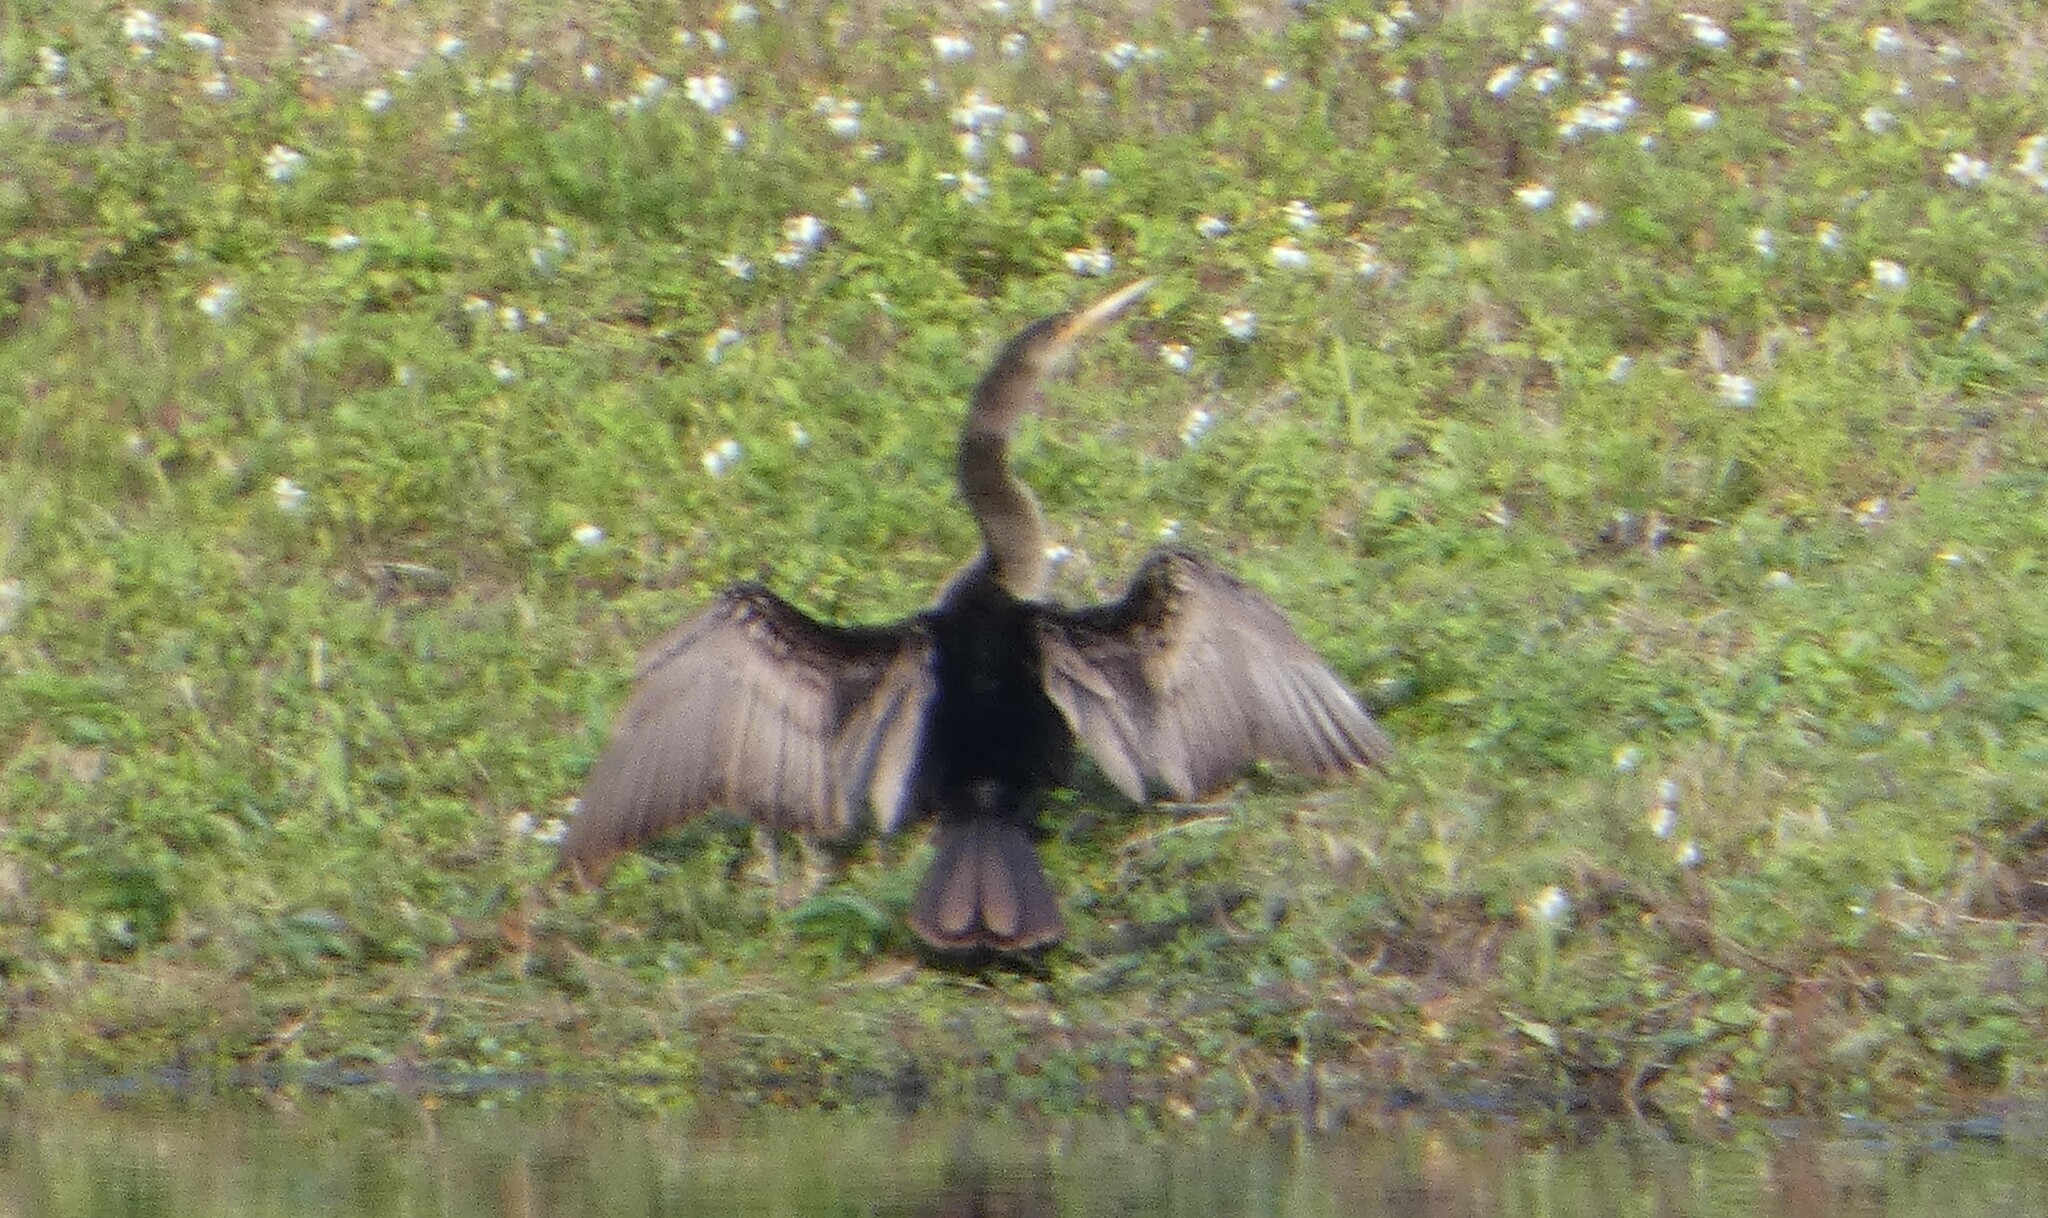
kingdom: Animalia
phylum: Chordata
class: Aves
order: Suliformes
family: Anhingidae
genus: Anhinga
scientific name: Anhinga anhinga
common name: Anhinga
